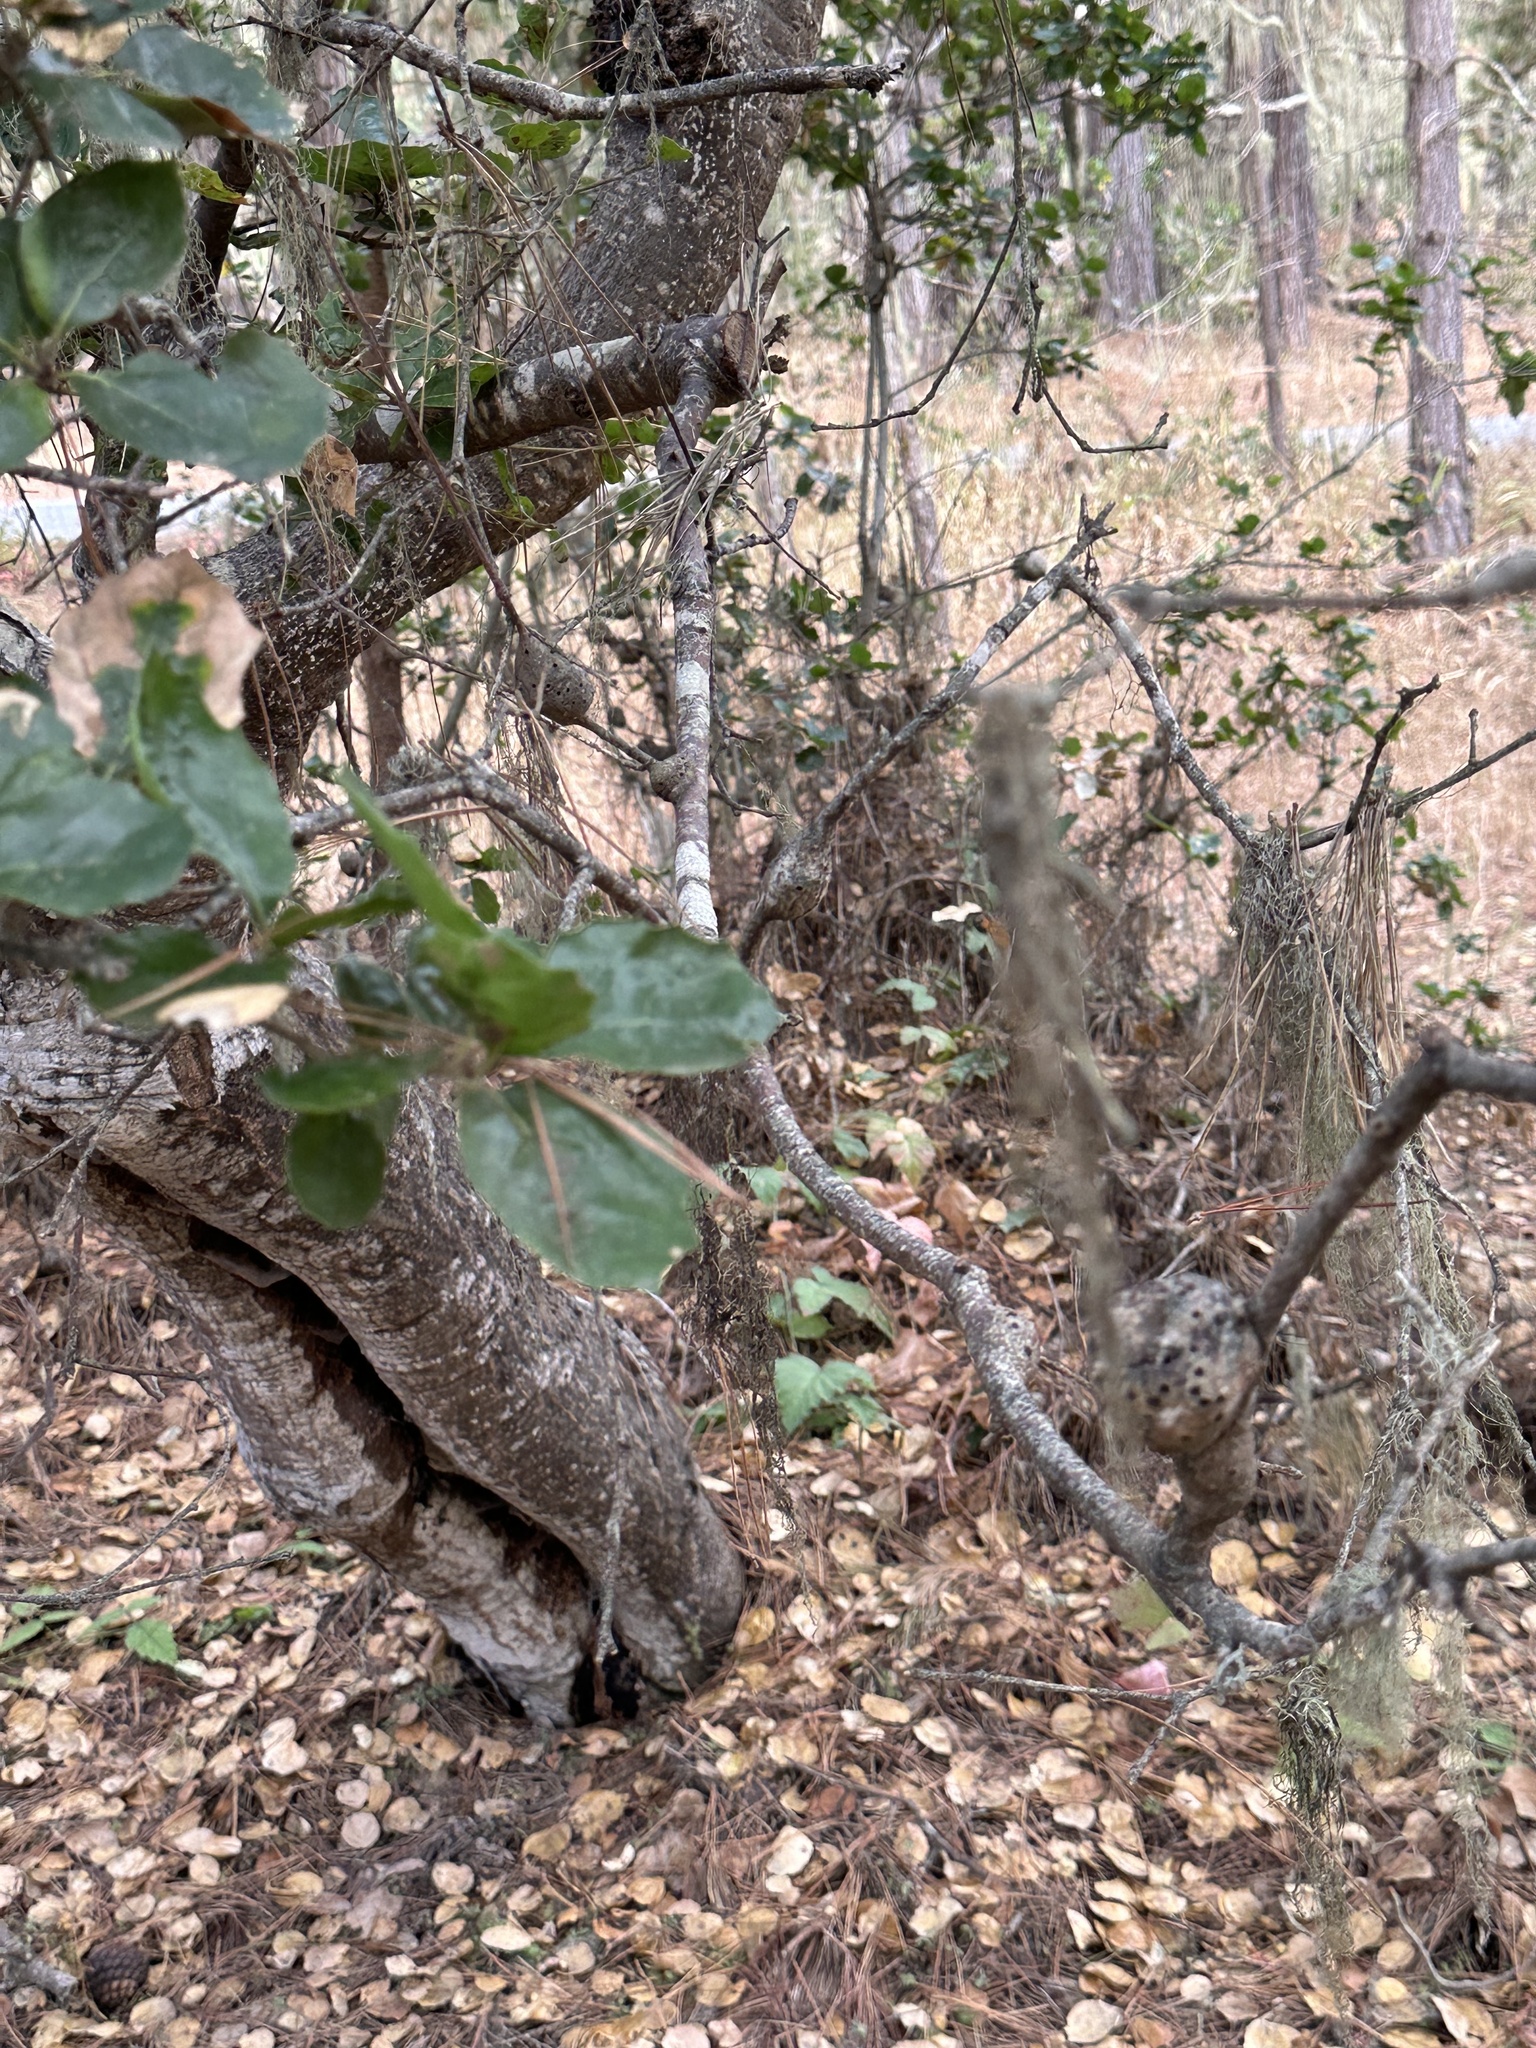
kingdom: Animalia
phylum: Arthropoda
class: Insecta
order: Hymenoptera
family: Cynipidae
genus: Callirhytis
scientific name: Callirhytis
